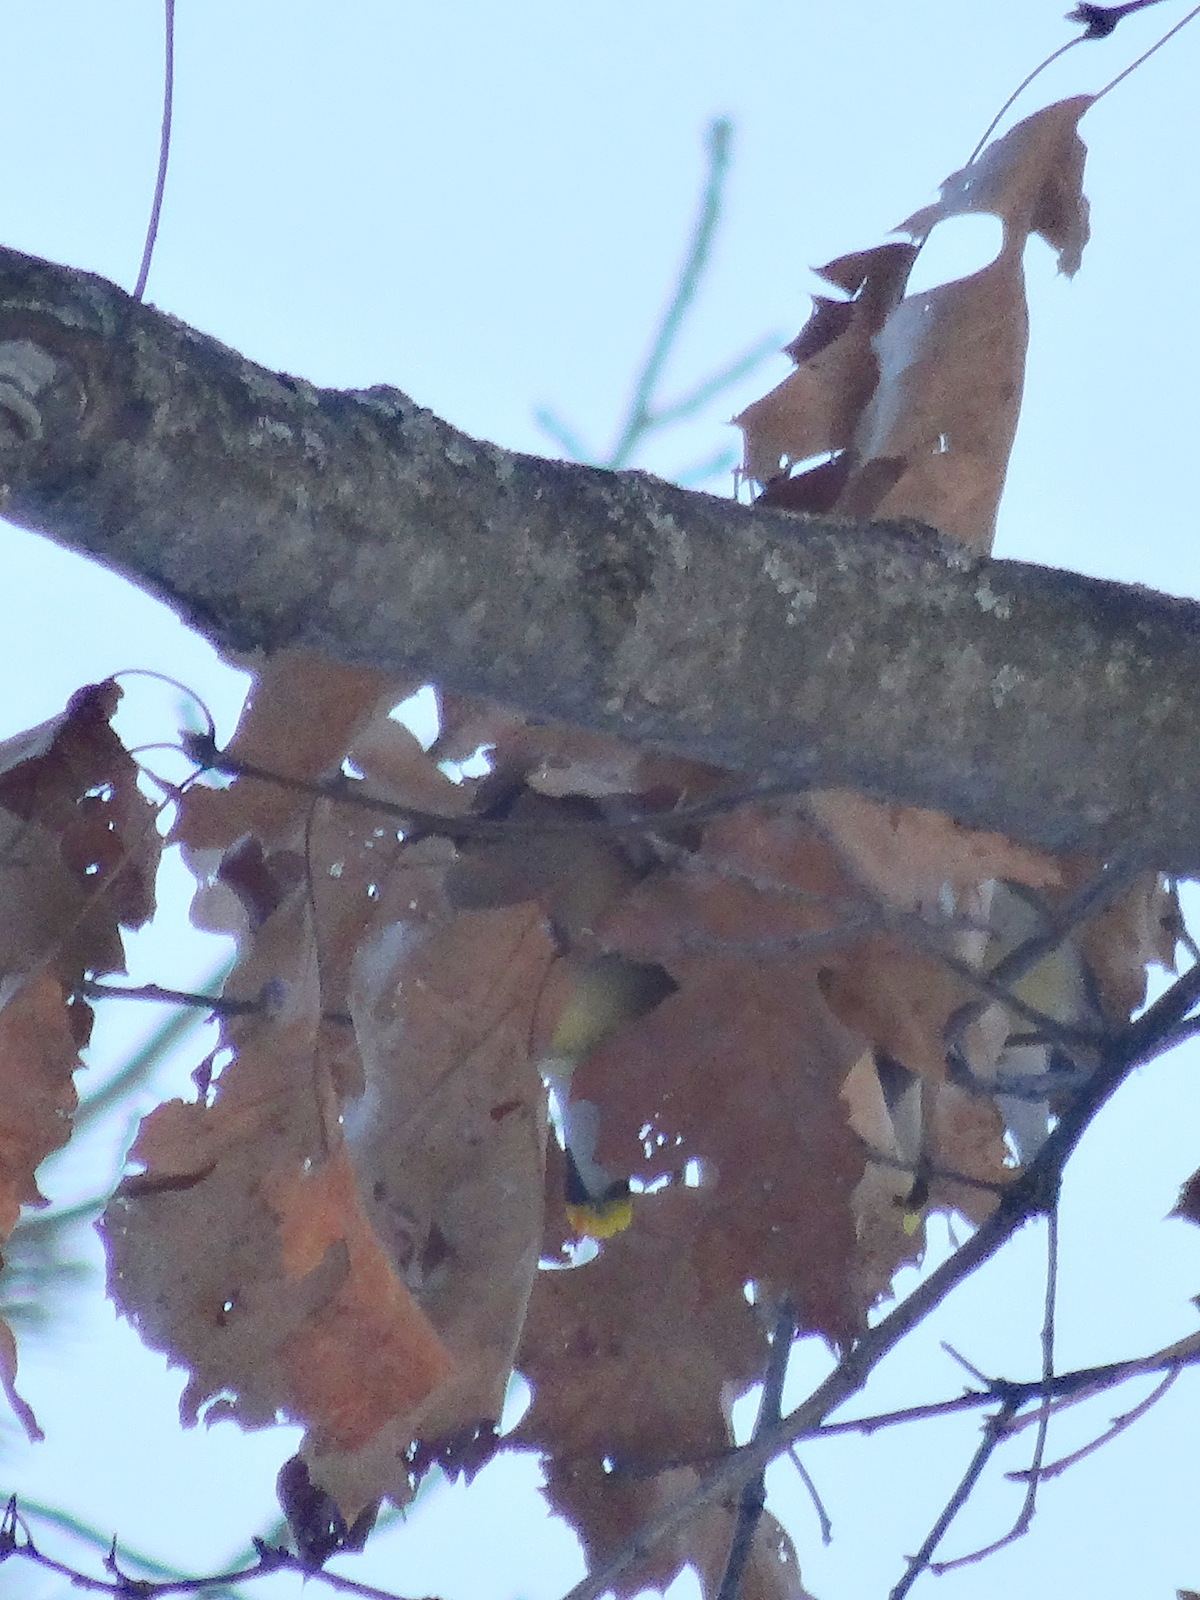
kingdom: Animalia
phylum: Chordata
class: Aves
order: Passeriformes
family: Bombycillidae
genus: Bombycilla
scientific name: Bombycilla cedrorum
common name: Cedar waxwing
